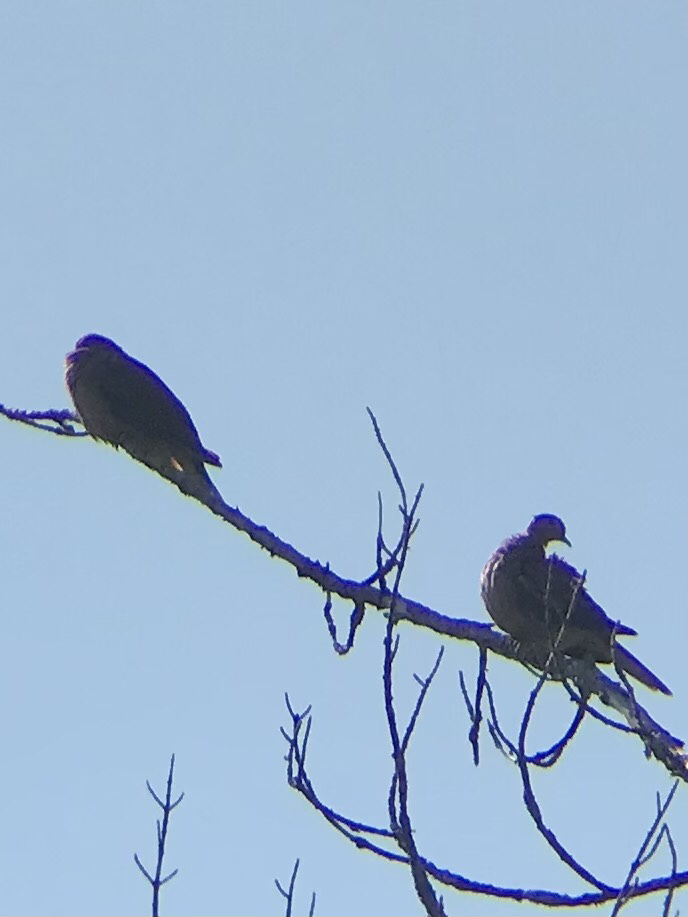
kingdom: Animalia
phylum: Chordata
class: Aves
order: Columbiformes
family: Columbidae
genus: Zenaida
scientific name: Zenaida macroura
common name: Mourning dove
